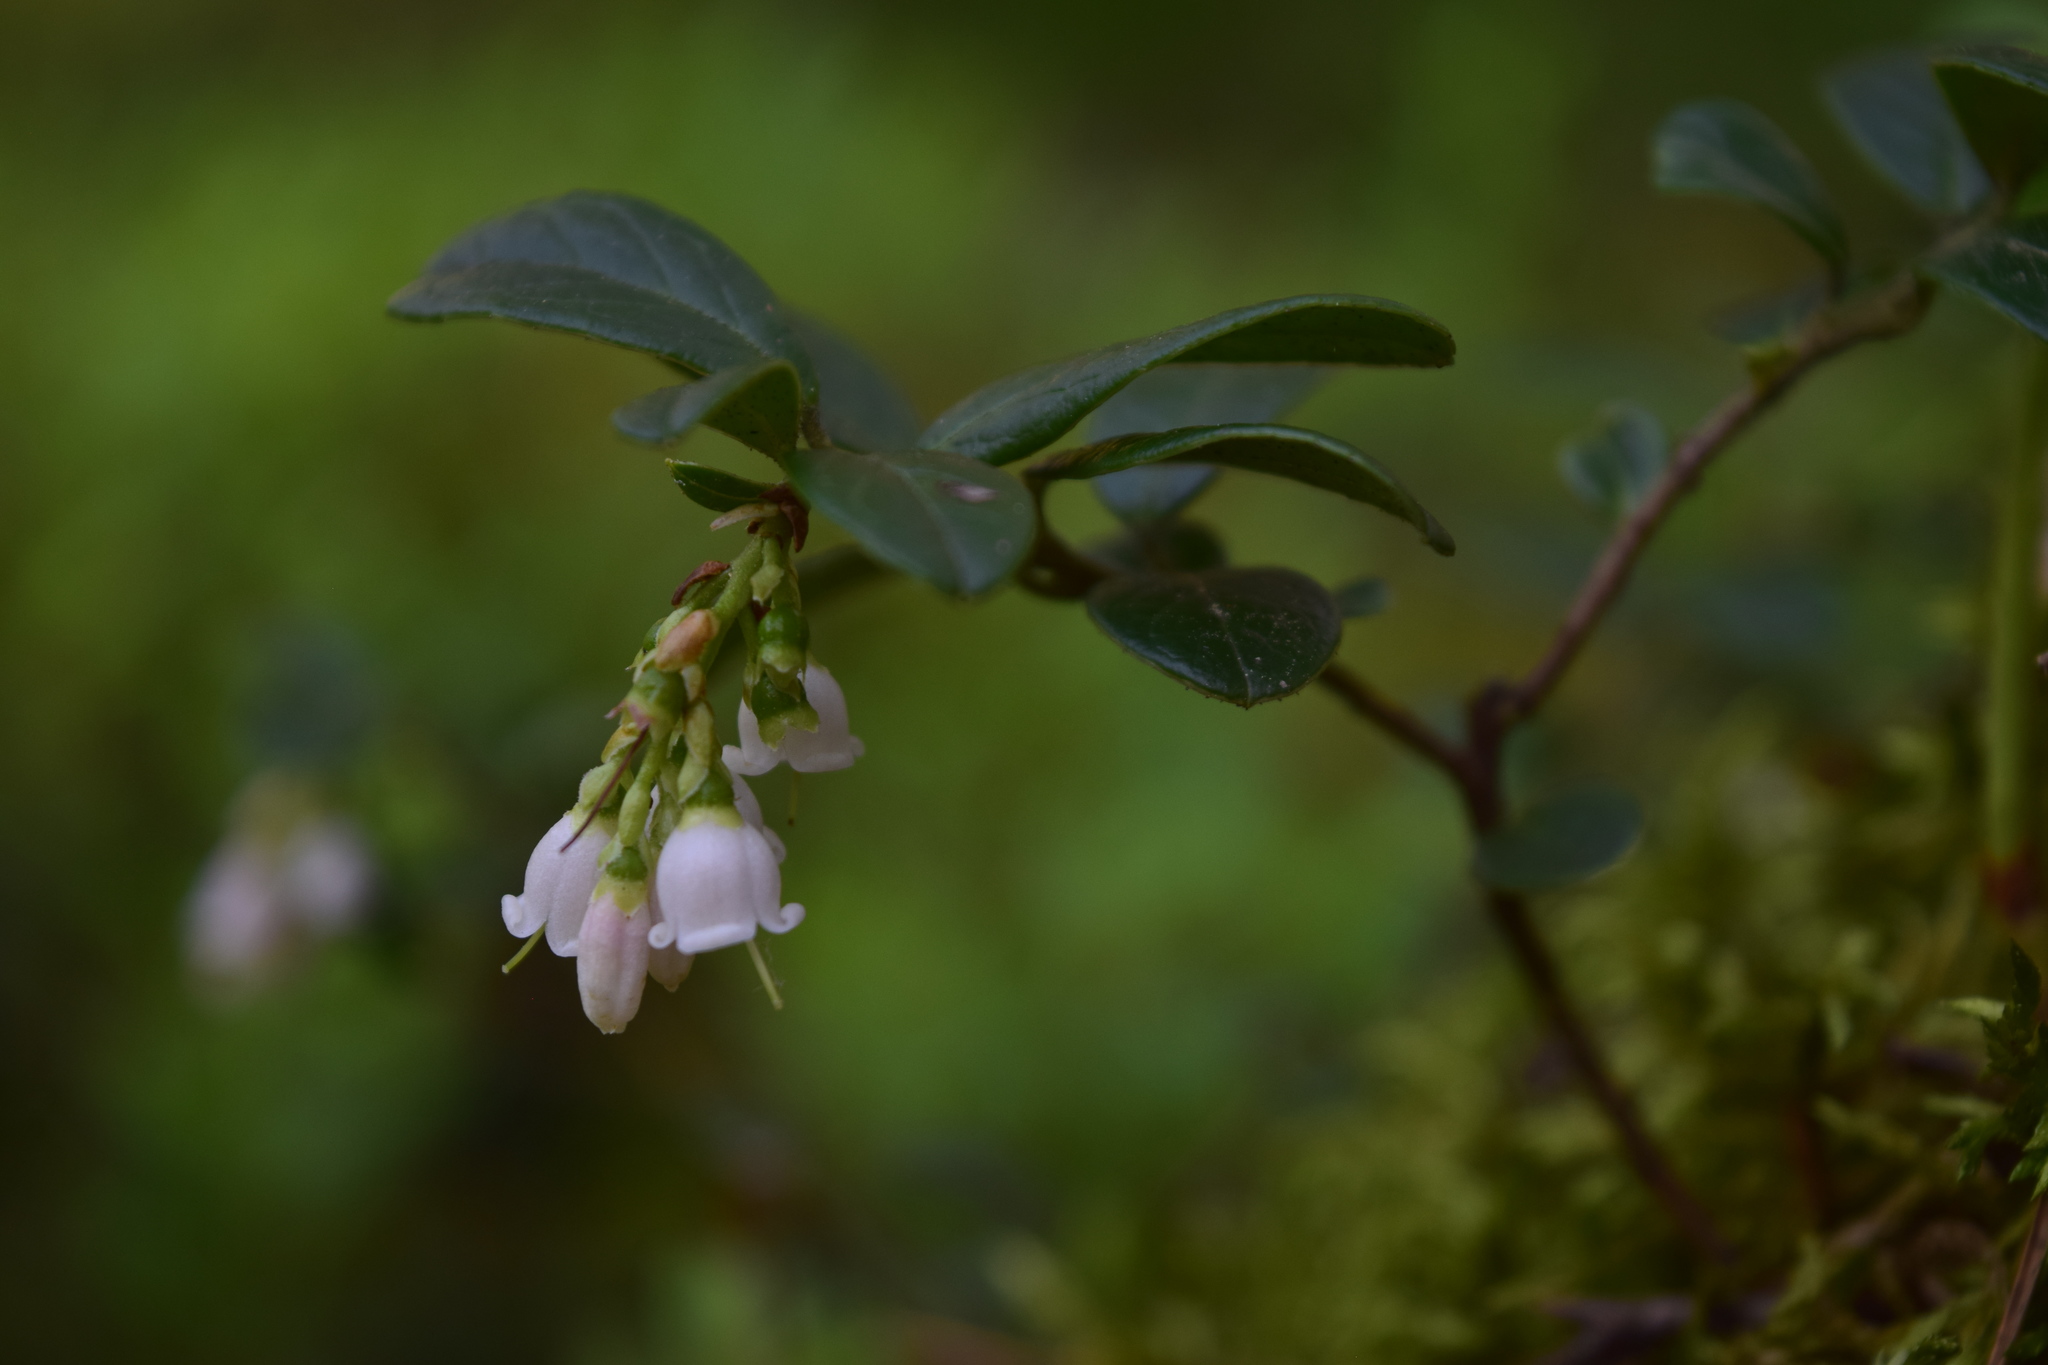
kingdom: Plantae
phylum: Tracheophyta
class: Magnoliopsida
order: Ericales
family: Ericaceae
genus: Vaccinium
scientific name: Vaccinium vitis-idaea
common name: Cowberry
